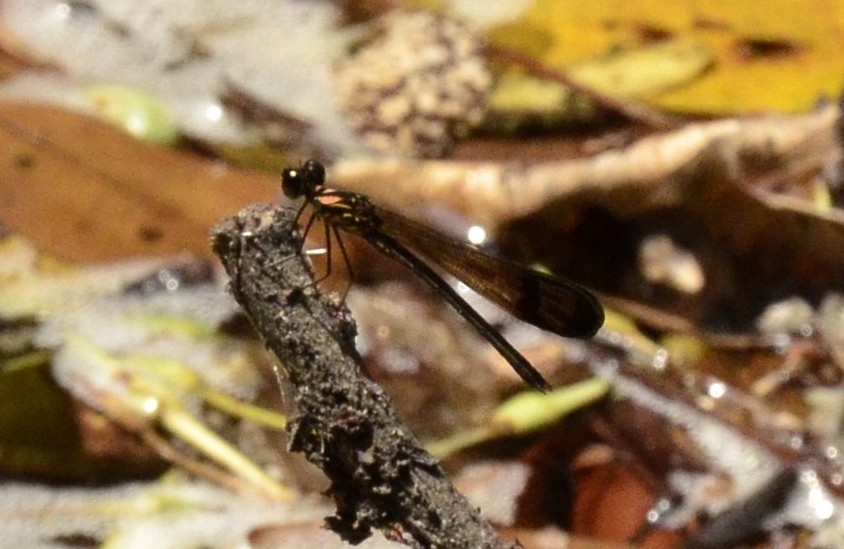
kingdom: Animalia
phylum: Arthropoda
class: Insecta
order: Odonata
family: Chlorocyphidae
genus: Heliocypha
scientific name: Heliocypha bisignata
